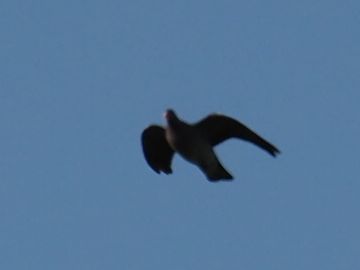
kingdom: Animalia
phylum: Chordata
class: Aves
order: Columbiformes
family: Columbidae
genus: Columba
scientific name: Columba palumbus
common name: Common wood pigeon
